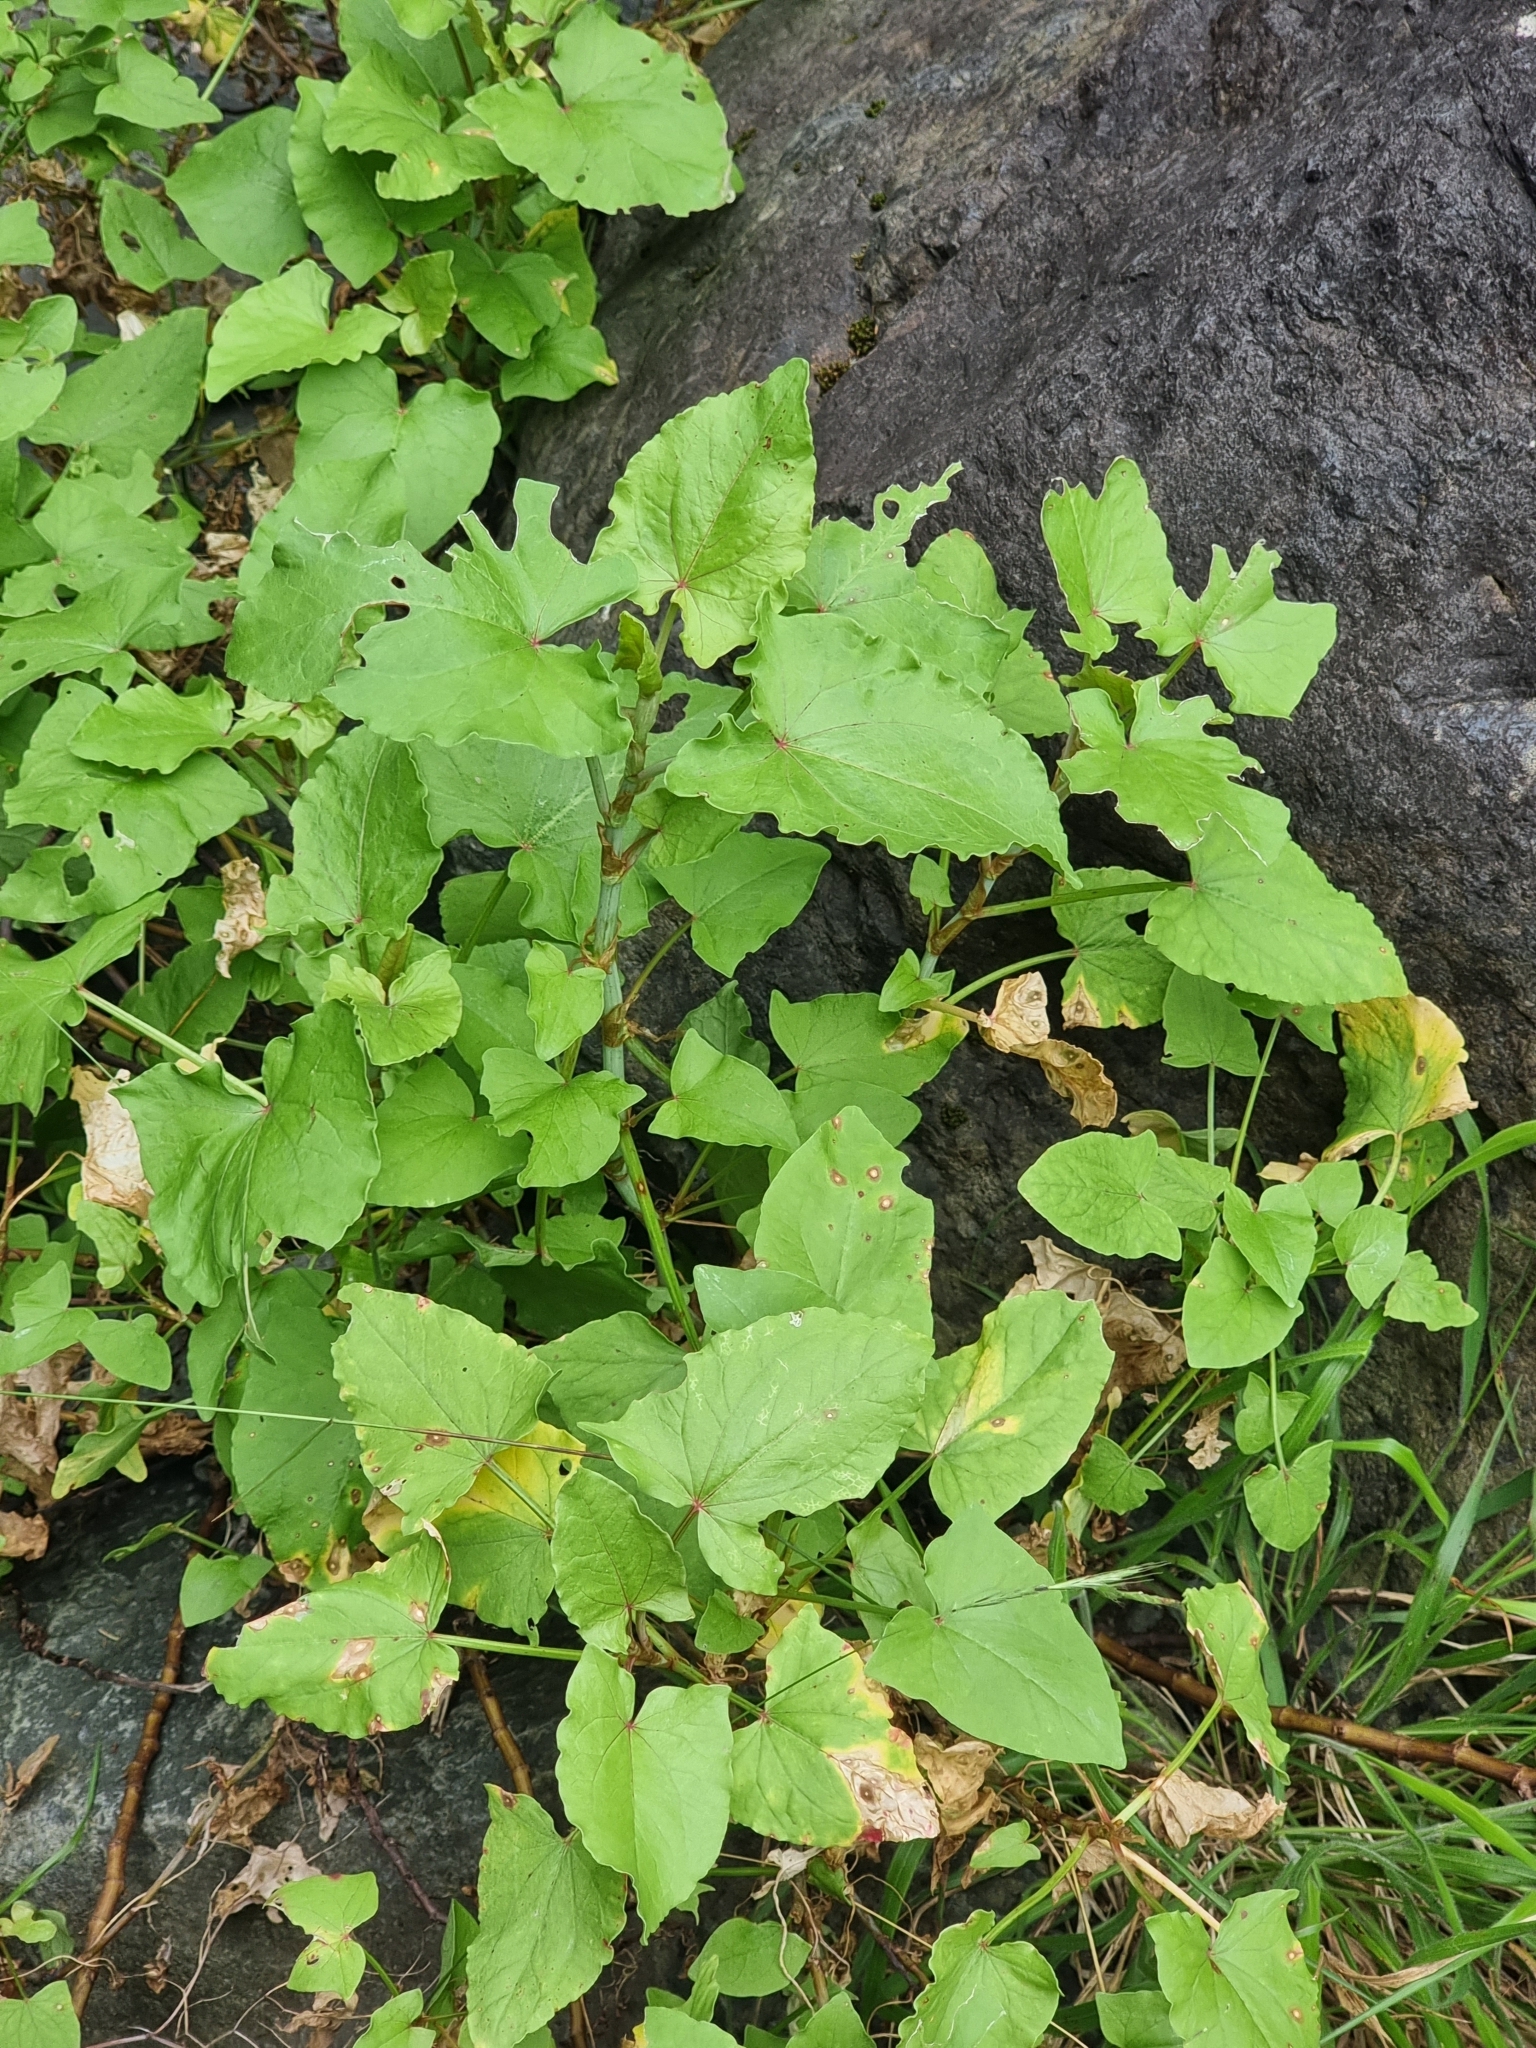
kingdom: Plantae
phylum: Tracheophyta
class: Magnoliopsida
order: Caryophyllales
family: Polygonaceae
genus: Rumex
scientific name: Rumex maderensis
